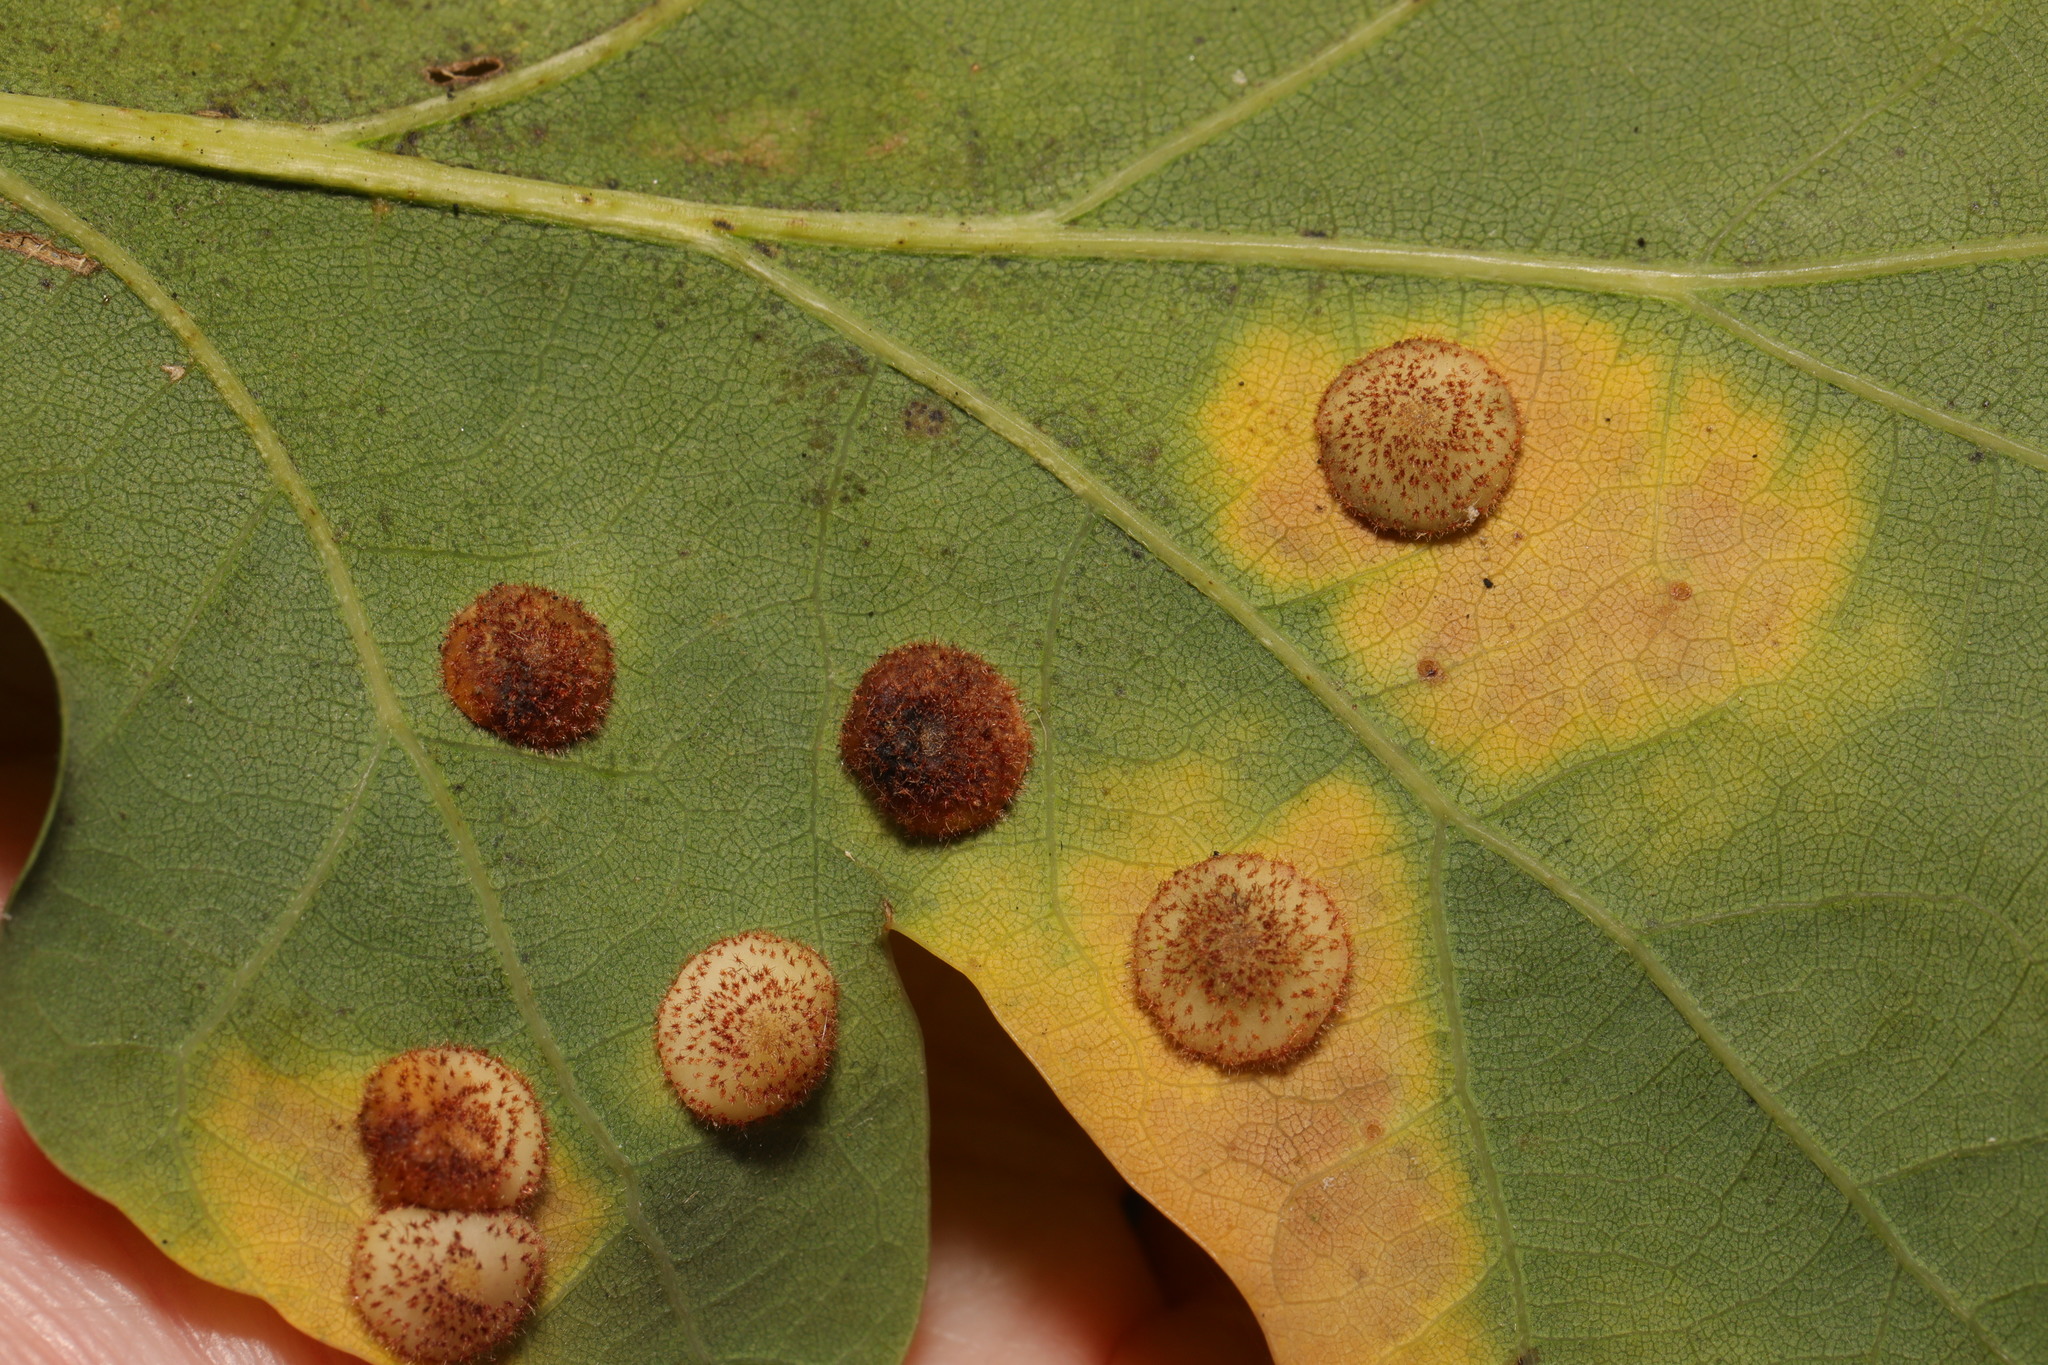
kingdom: Animalia
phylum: Arthropoda
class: Insecta
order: Hymenoptera
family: Cynipidae
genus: Neuroterus
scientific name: Neuroterus quercusbaccarum
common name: Common spangle gall
